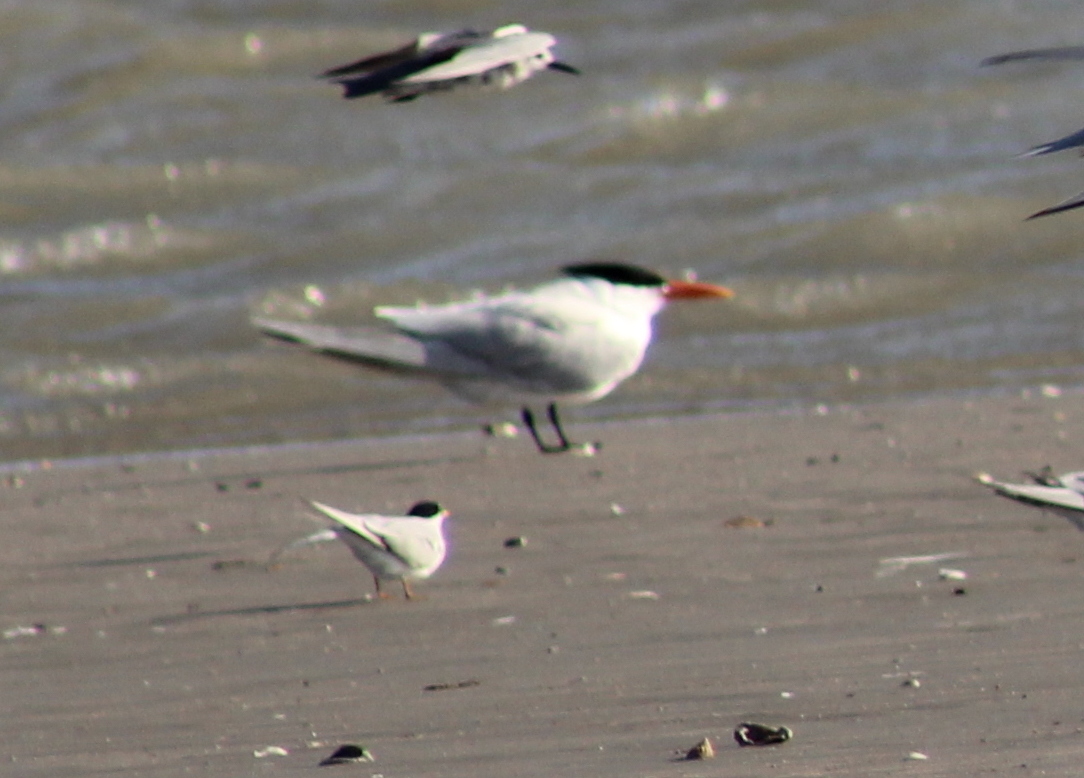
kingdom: Animalia
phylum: Chordata
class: Aves
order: Charadriiformes
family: Laridae
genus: Thalasseus
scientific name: Thalasseus maximus
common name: Royal tern
